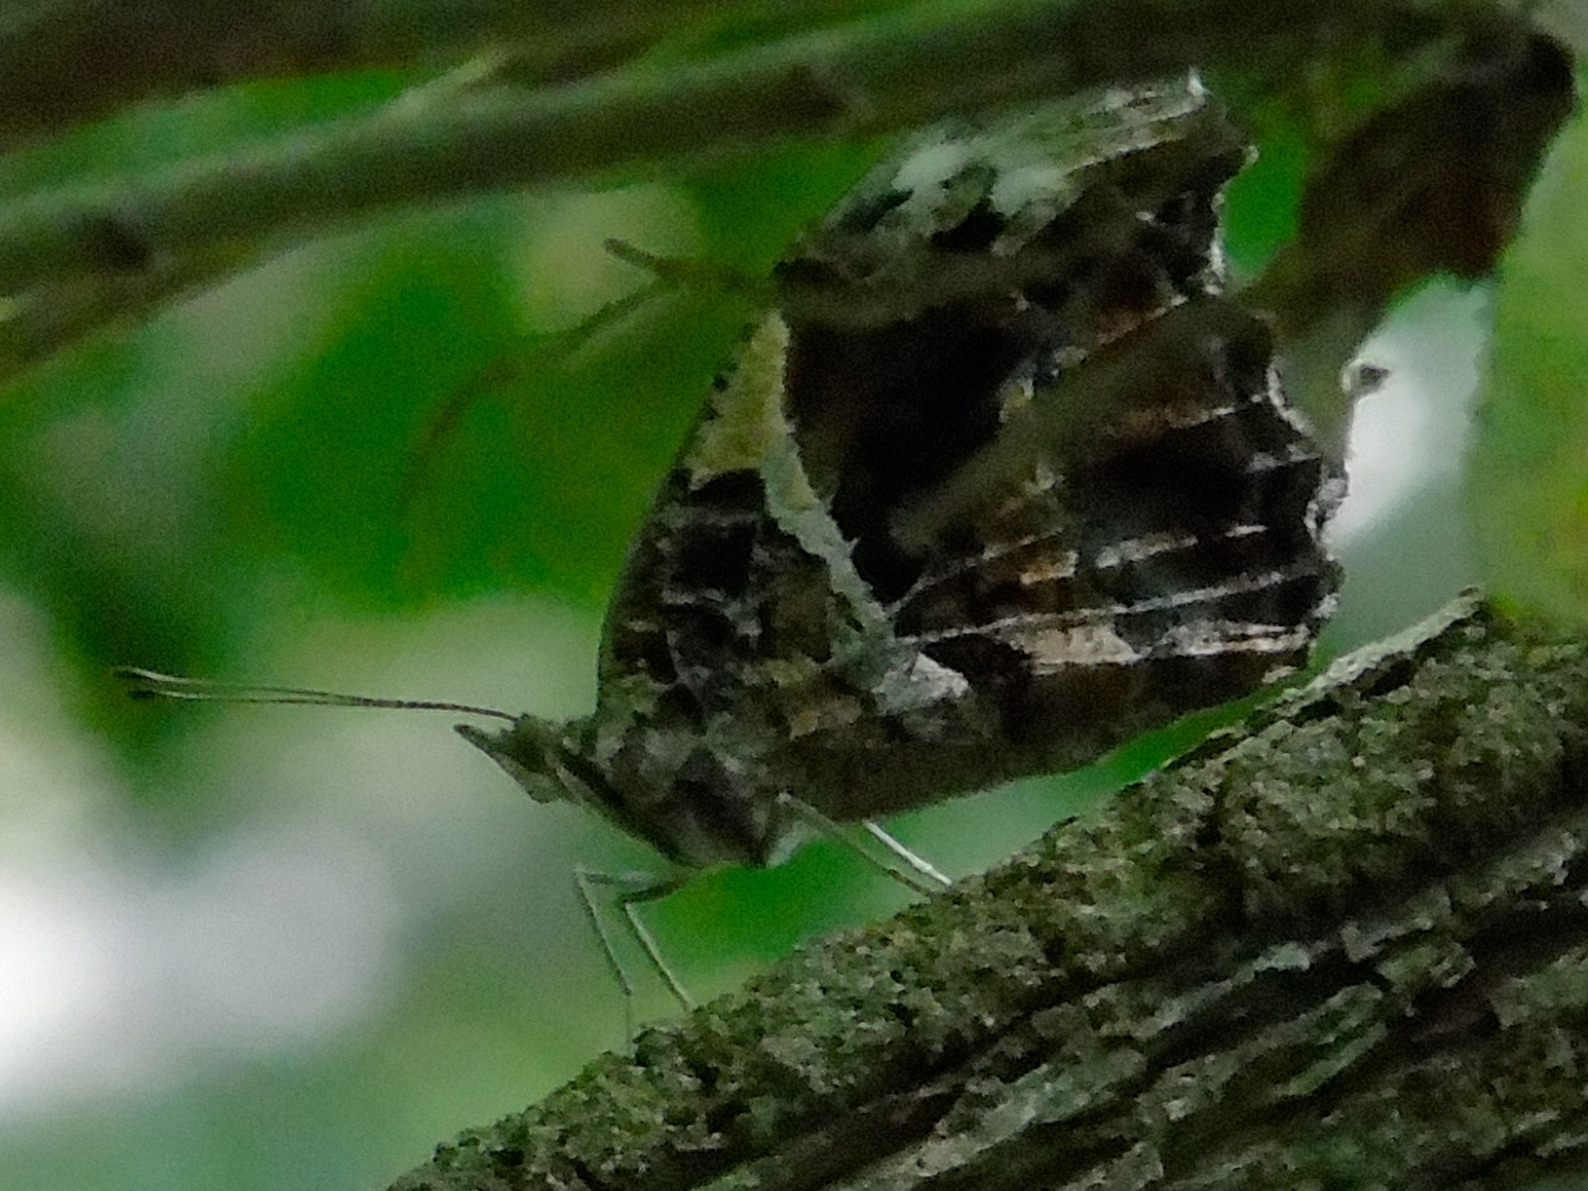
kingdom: Animalia
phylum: Arthropoda
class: Insecta
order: Lepidoptera
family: Nymphalidae
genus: Myscelia
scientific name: Myscelia
